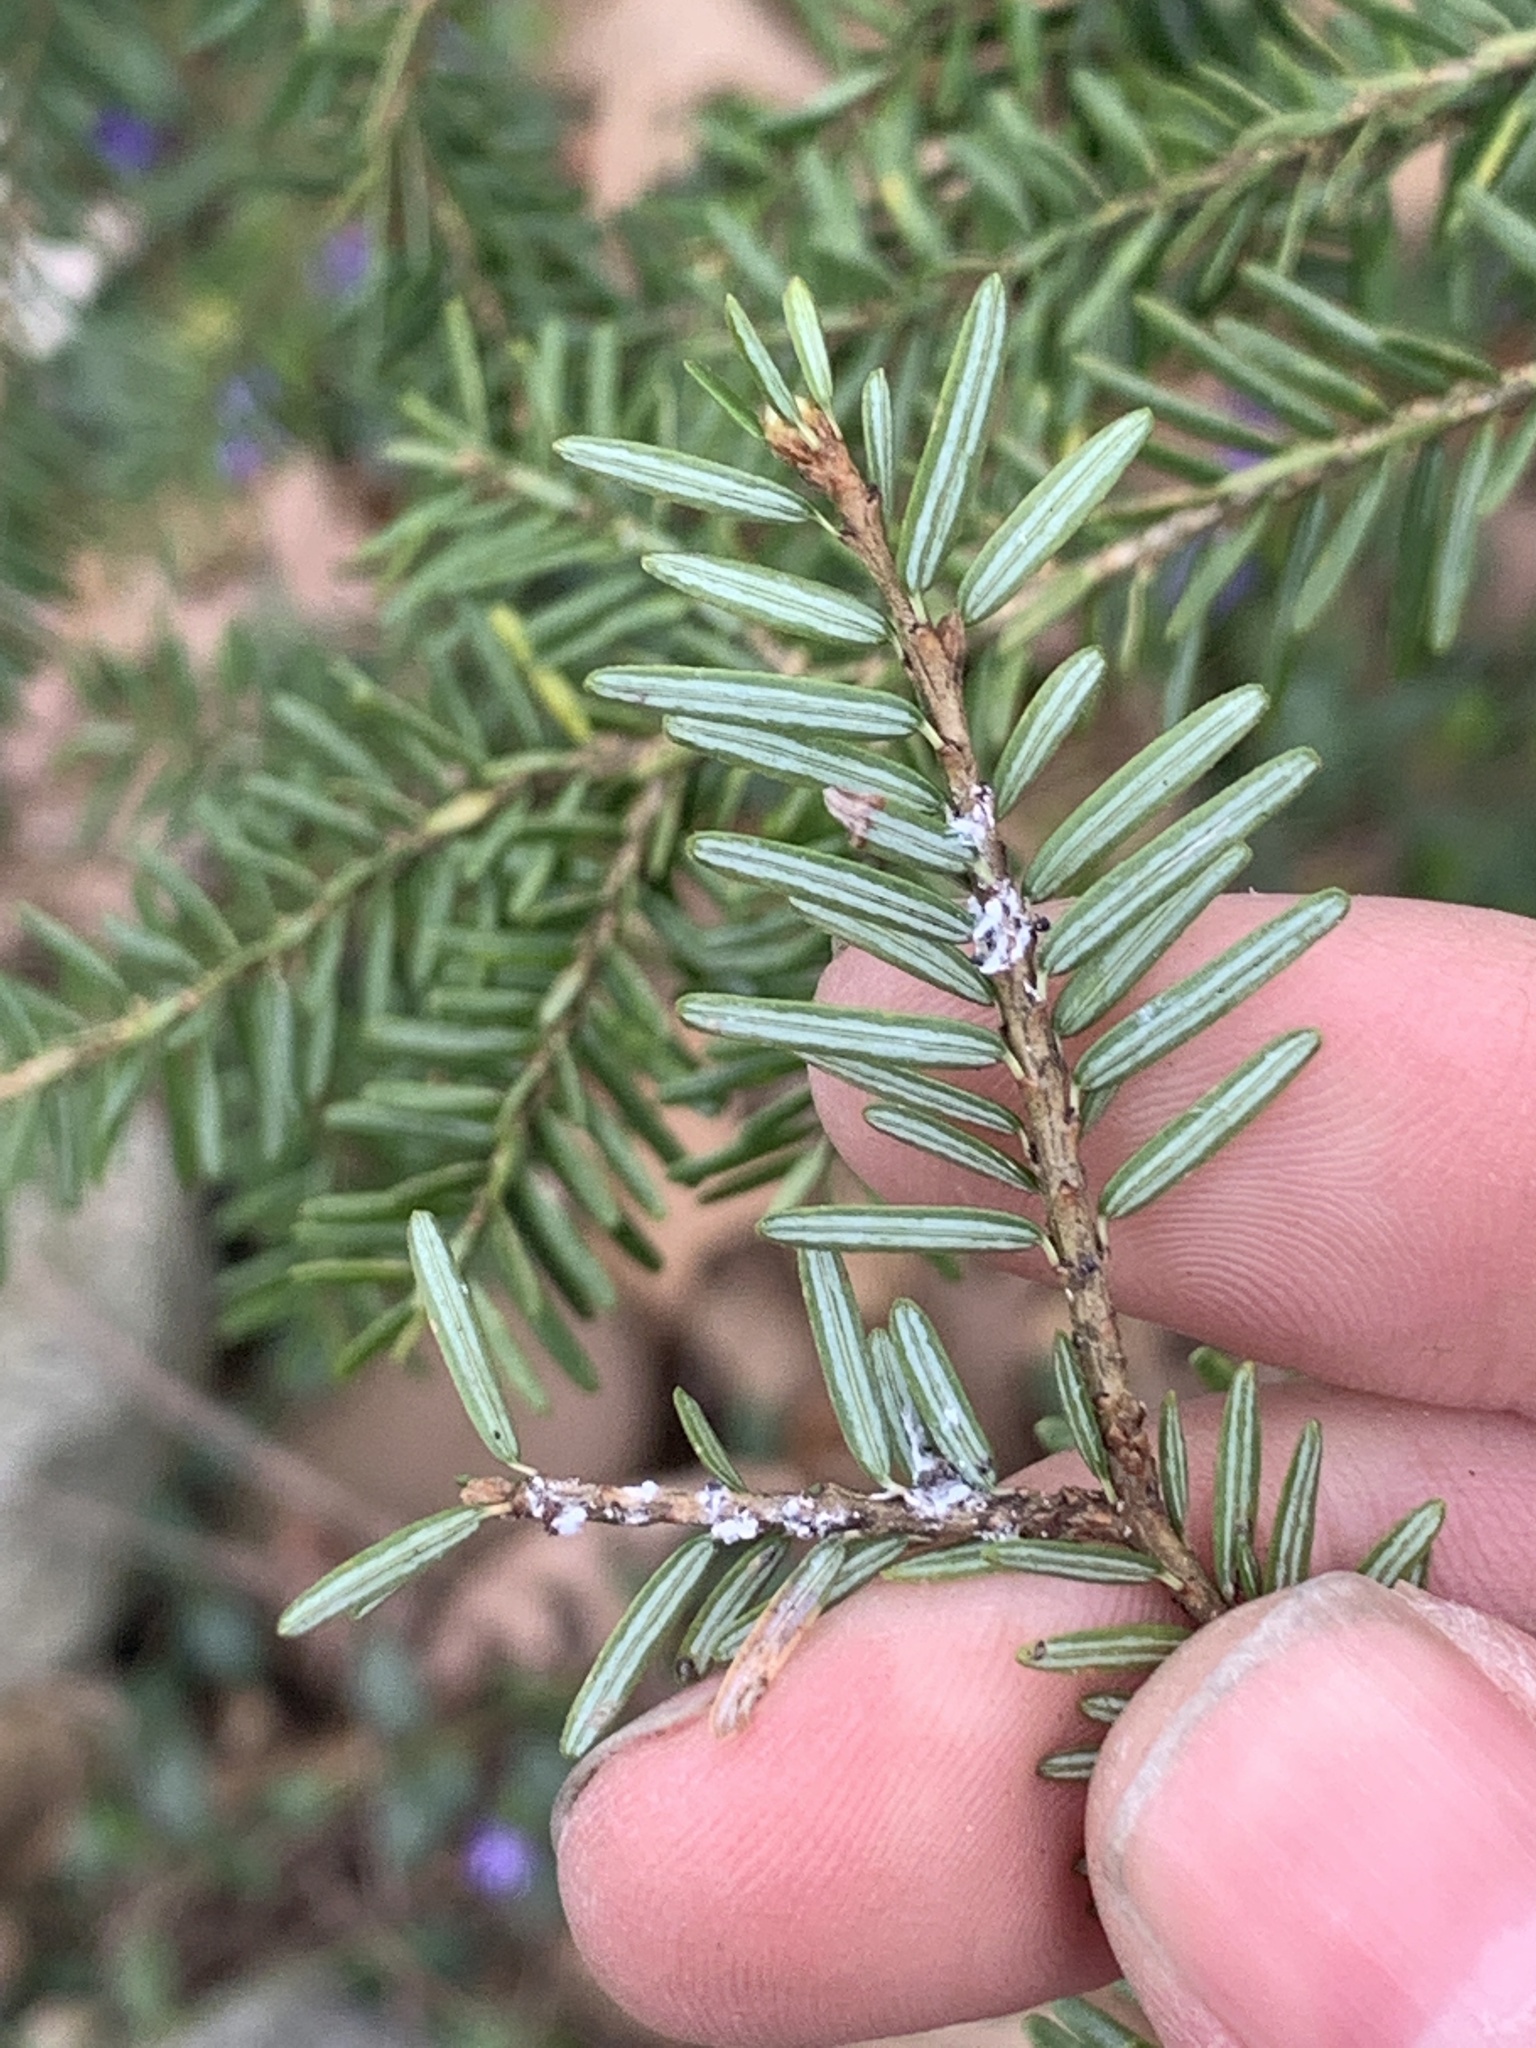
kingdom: Animalia
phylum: Arthropoda
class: Insecta
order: Hemiptera
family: Adelgidae
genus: Adelges
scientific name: Adelges tsugae
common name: Hemlock woolly adelgid
